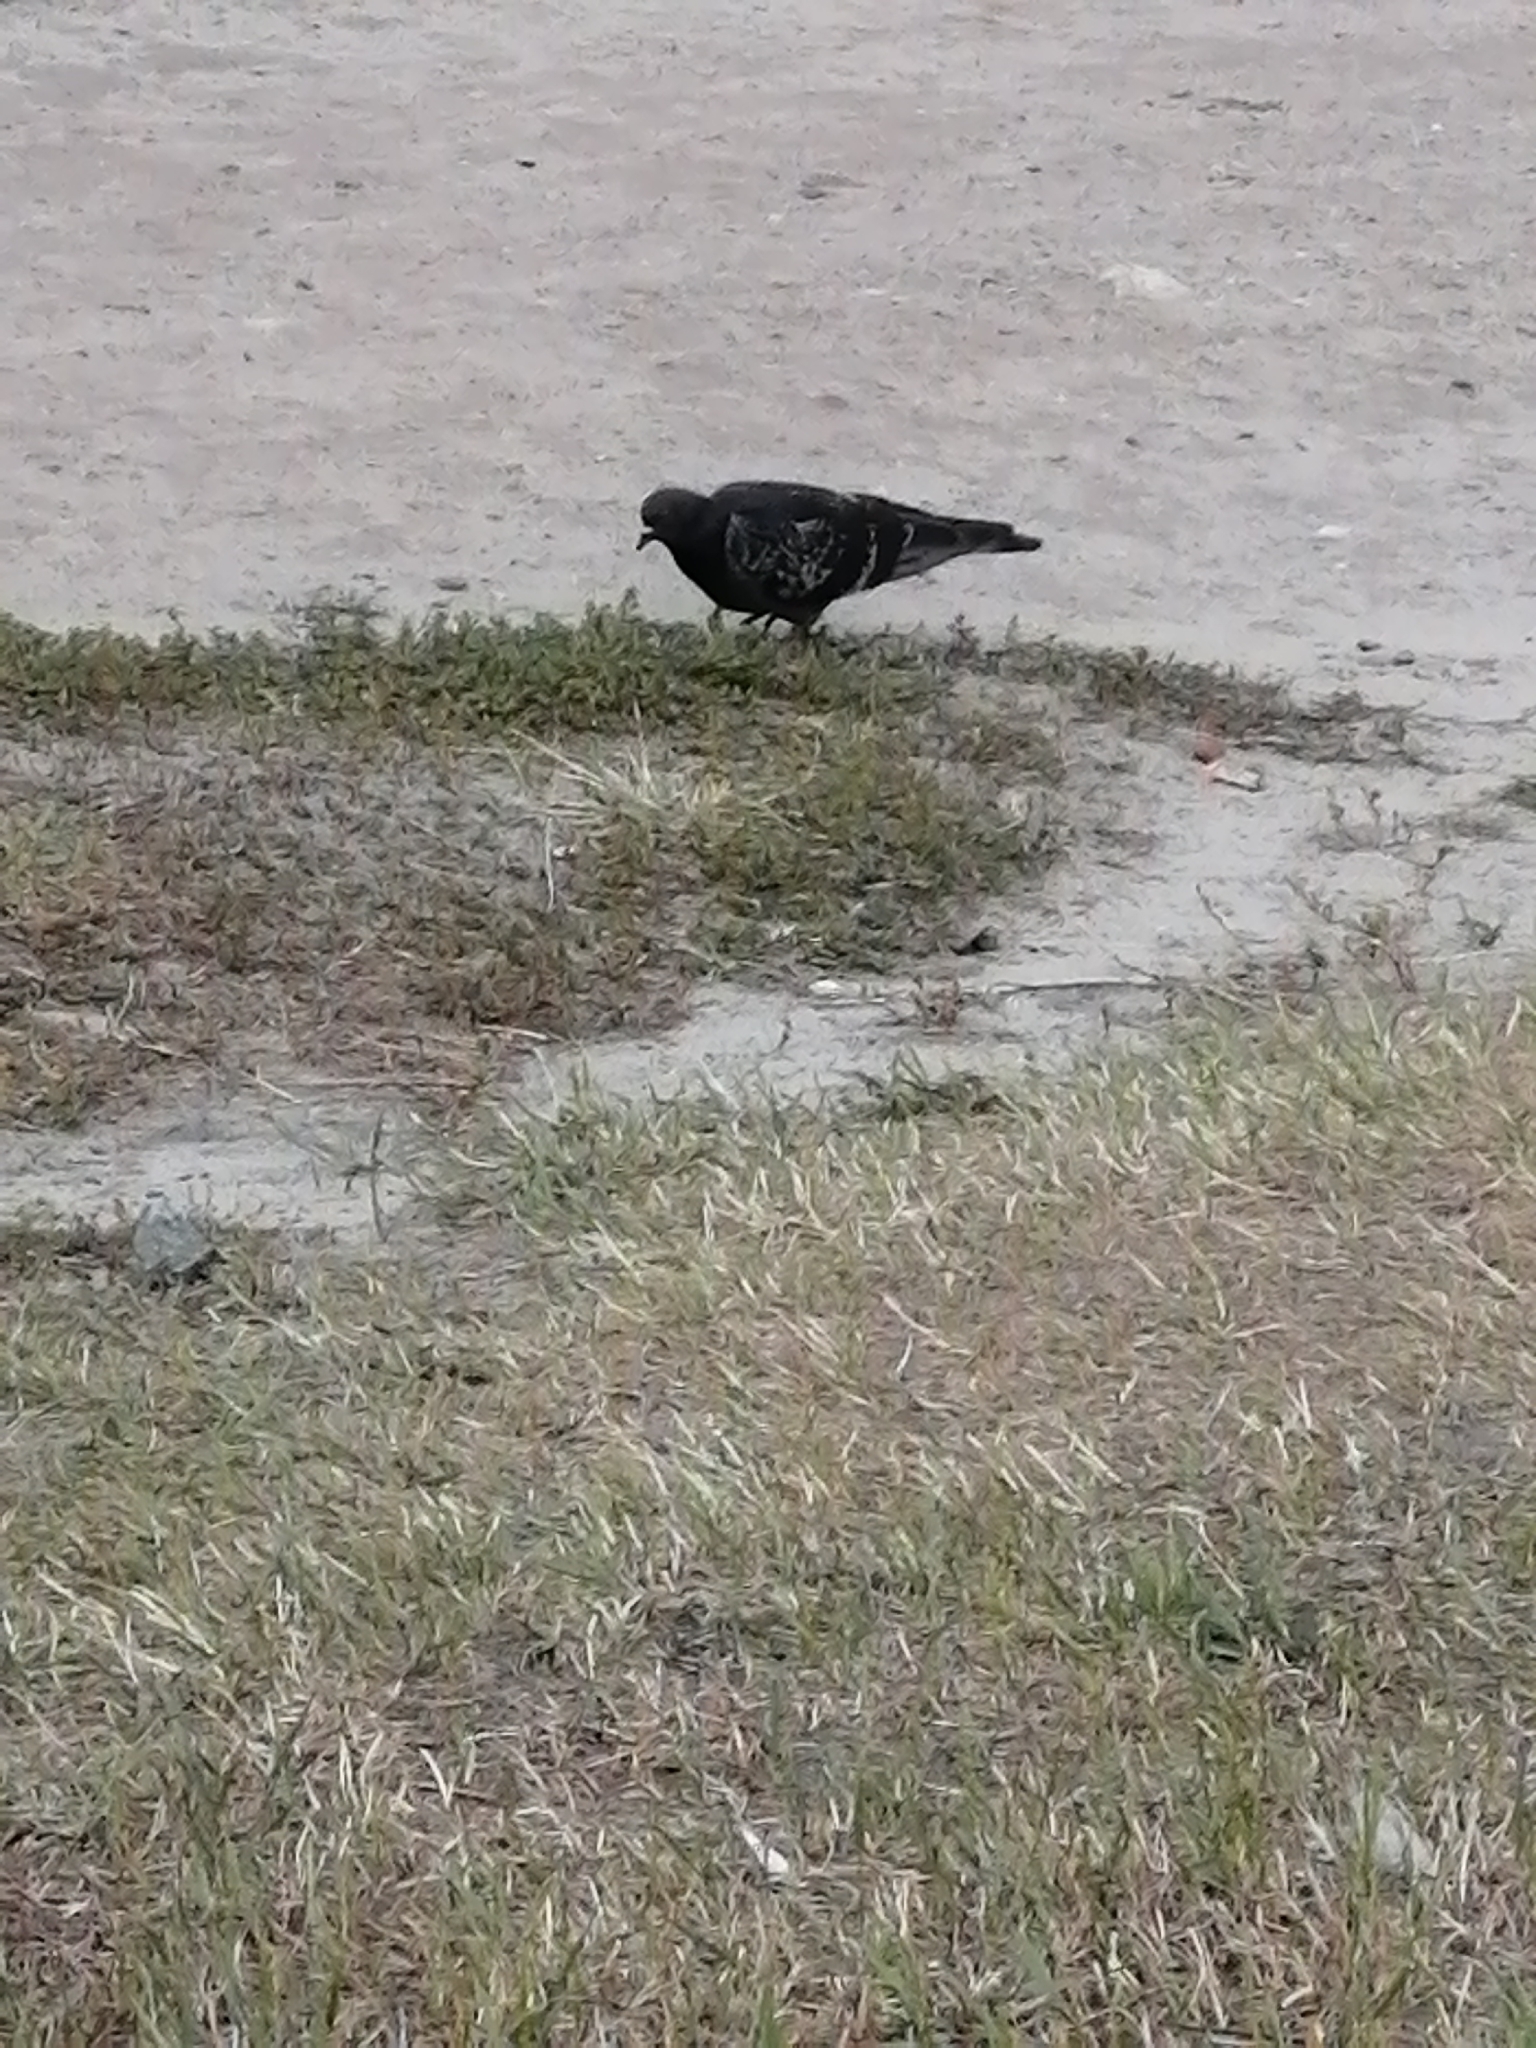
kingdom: Animalia
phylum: Chordata
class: Aves
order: Columbiformes
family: Columbidae
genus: Columba
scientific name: Columba livia
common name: Rock pigeon
